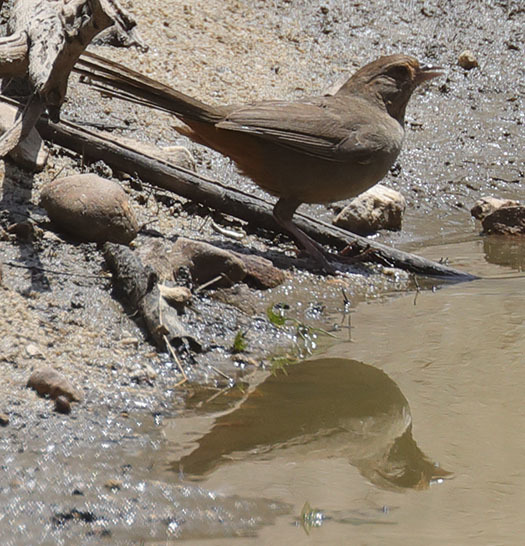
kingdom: Animalia
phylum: Chordata
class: Aves
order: Passeriformes
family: Passerellidae
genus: Melozone
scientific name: Melozone crissalis
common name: California towhee
